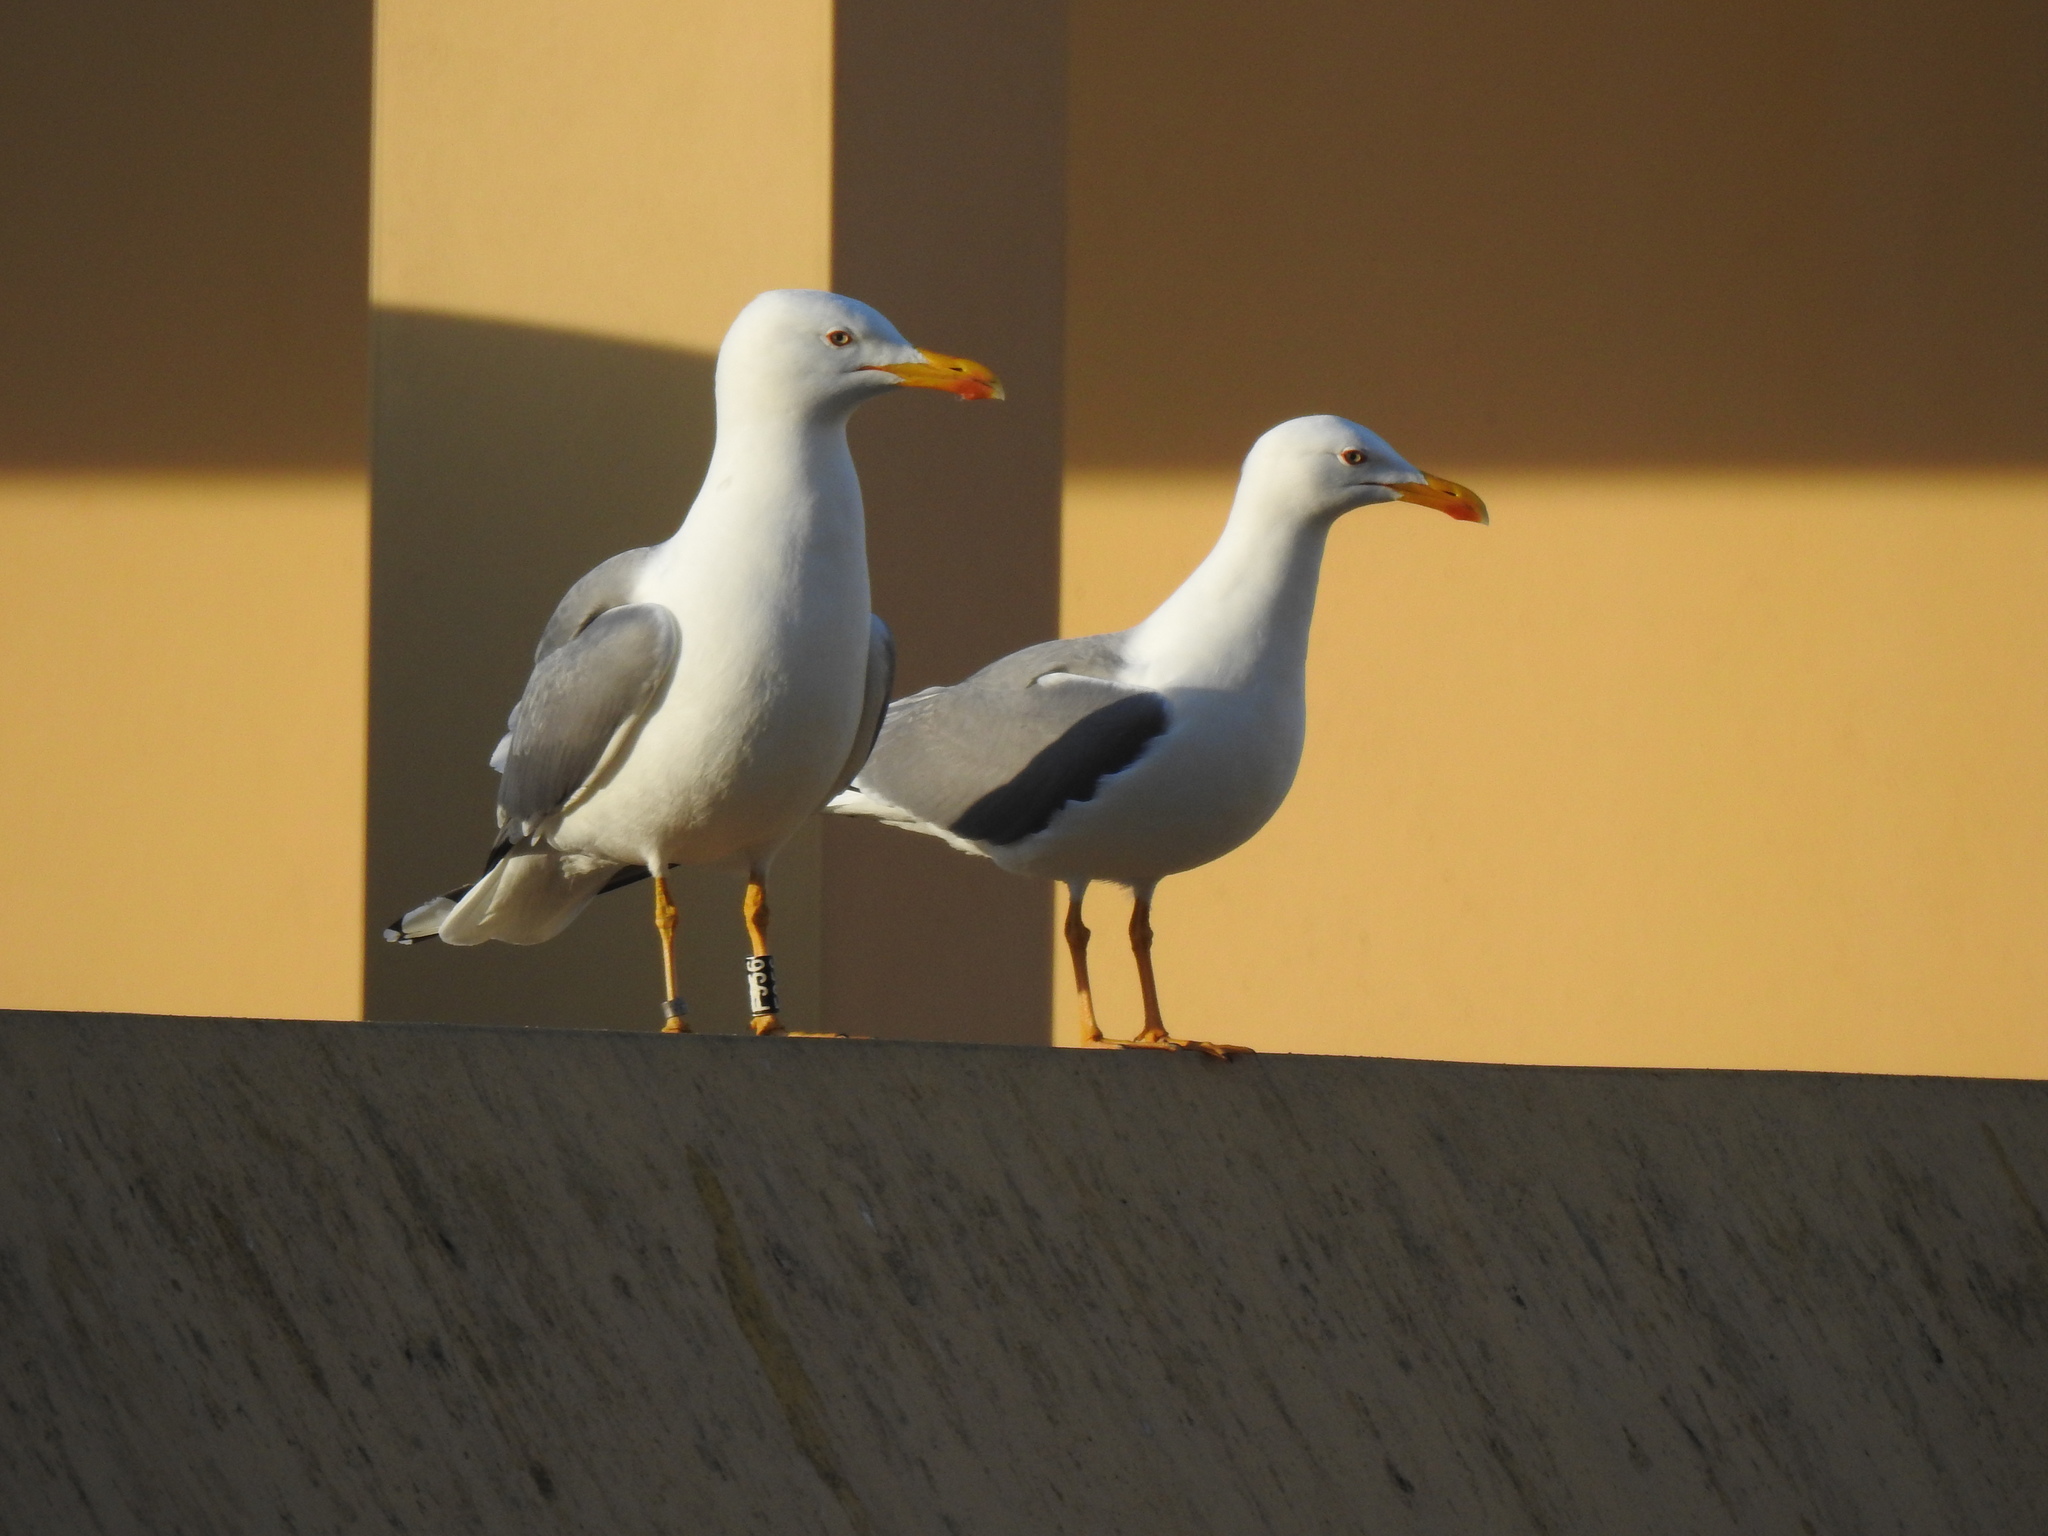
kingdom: Animalia
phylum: Chordata
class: Aves
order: Charadriiformes
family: Laridae
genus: Larus
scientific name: Larus michahellis
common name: Yellow-legged gull
